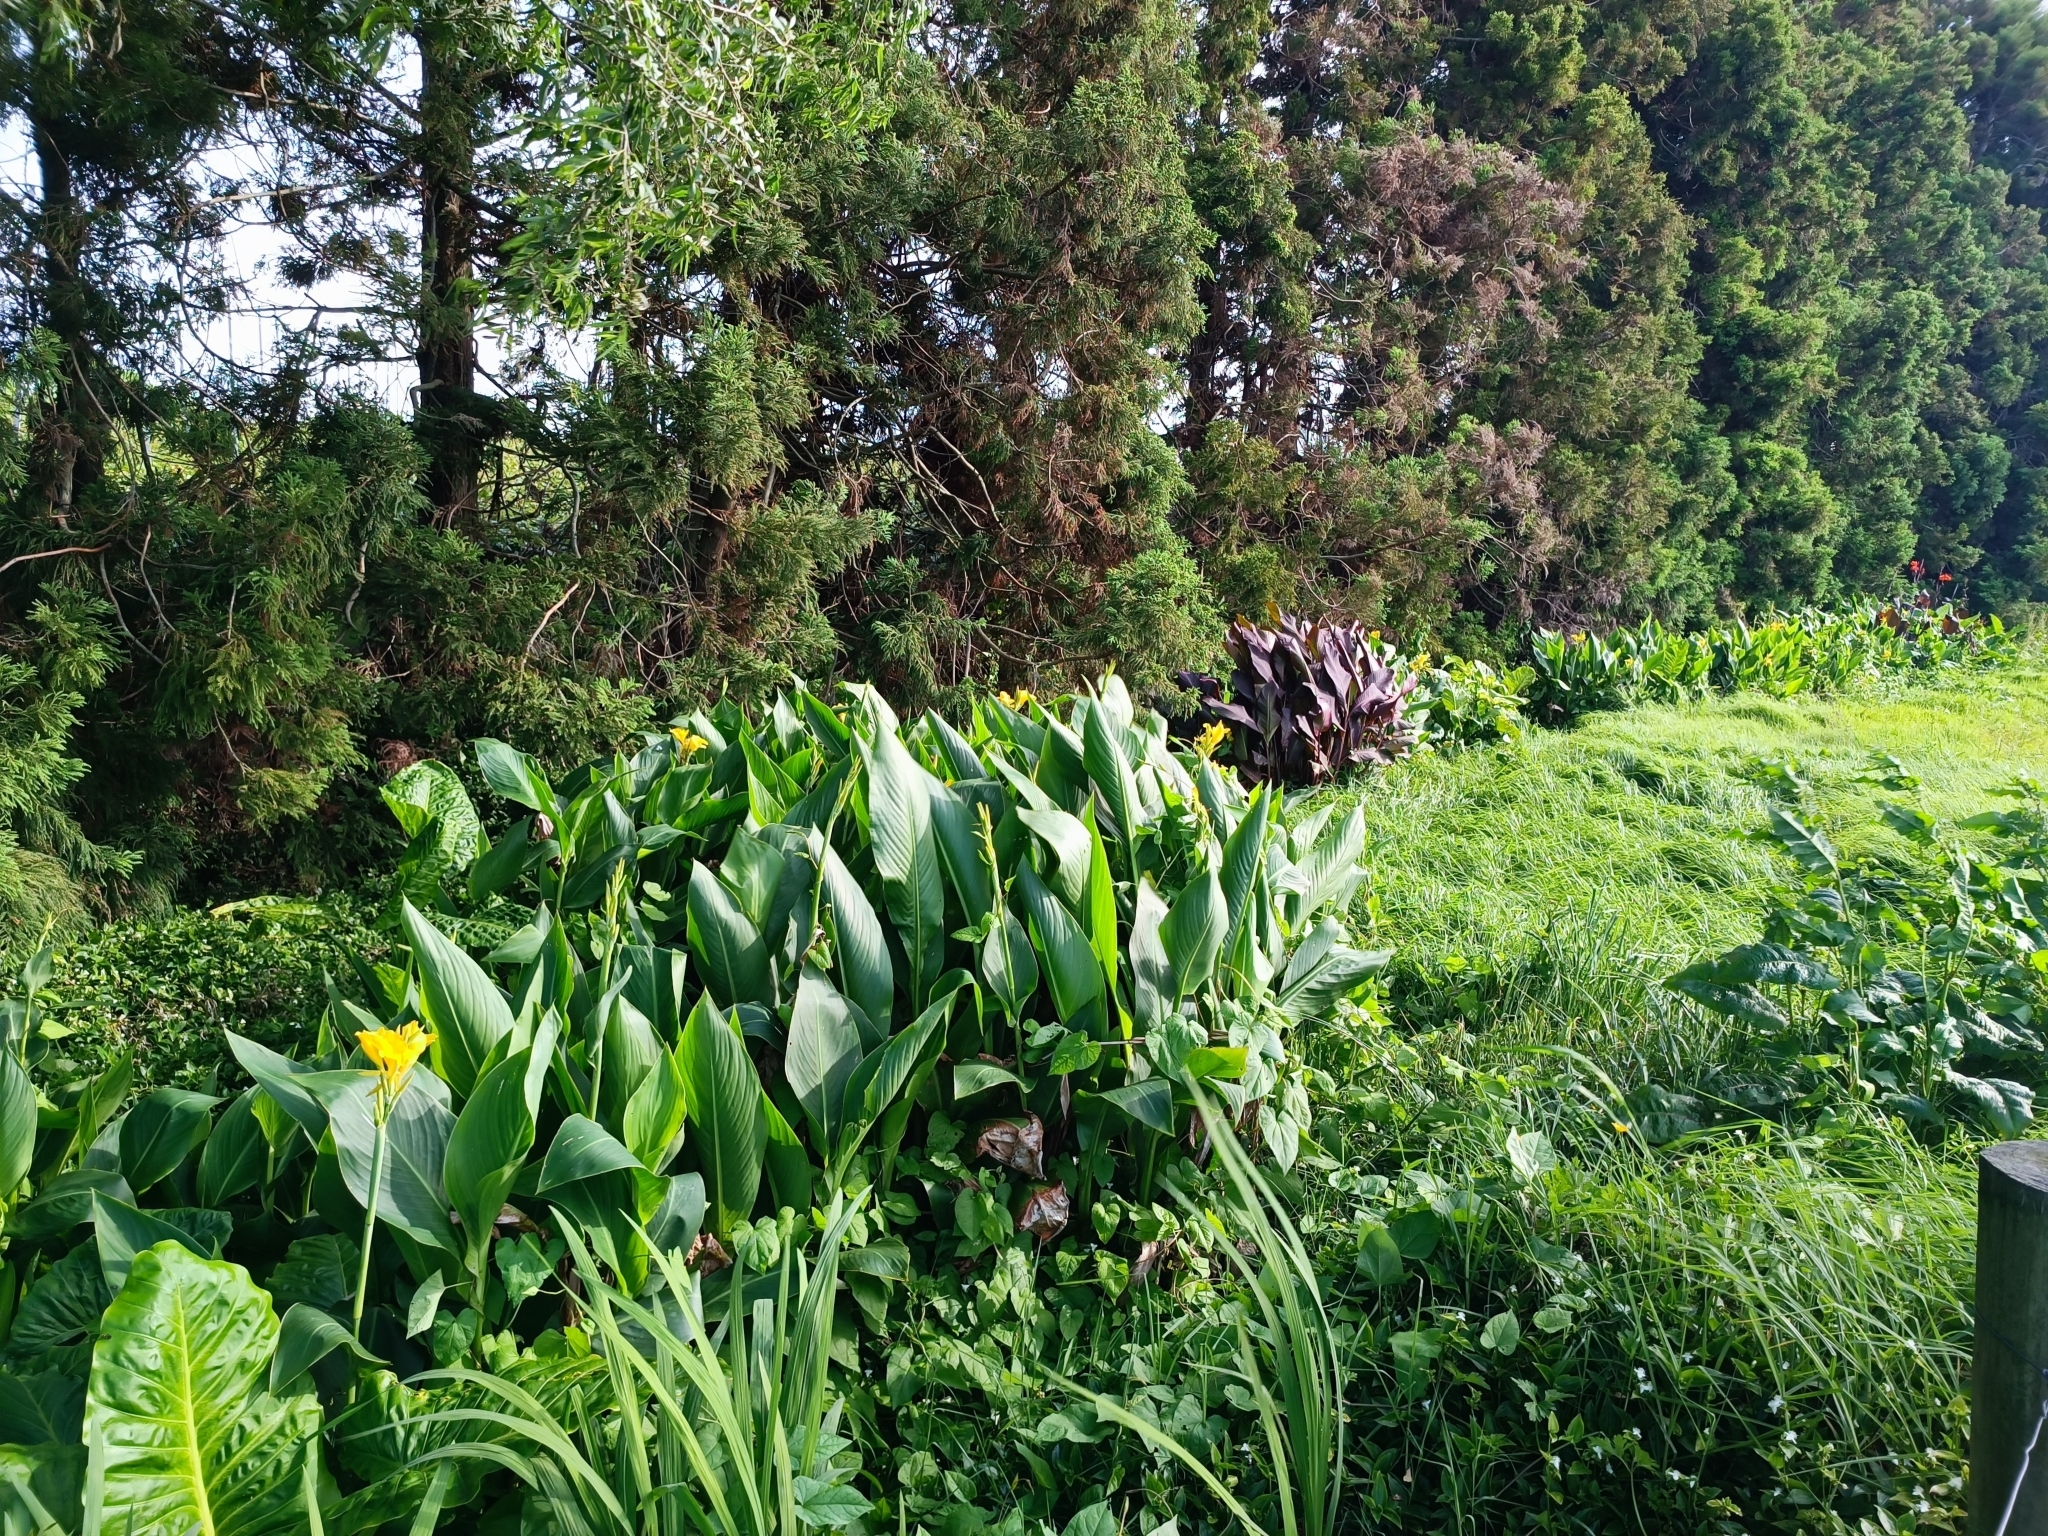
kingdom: Plantae
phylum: Tracheophyta
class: Liliopsida
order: Zingiberales
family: Cannaceae
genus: Canna
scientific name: Canna hybrida
